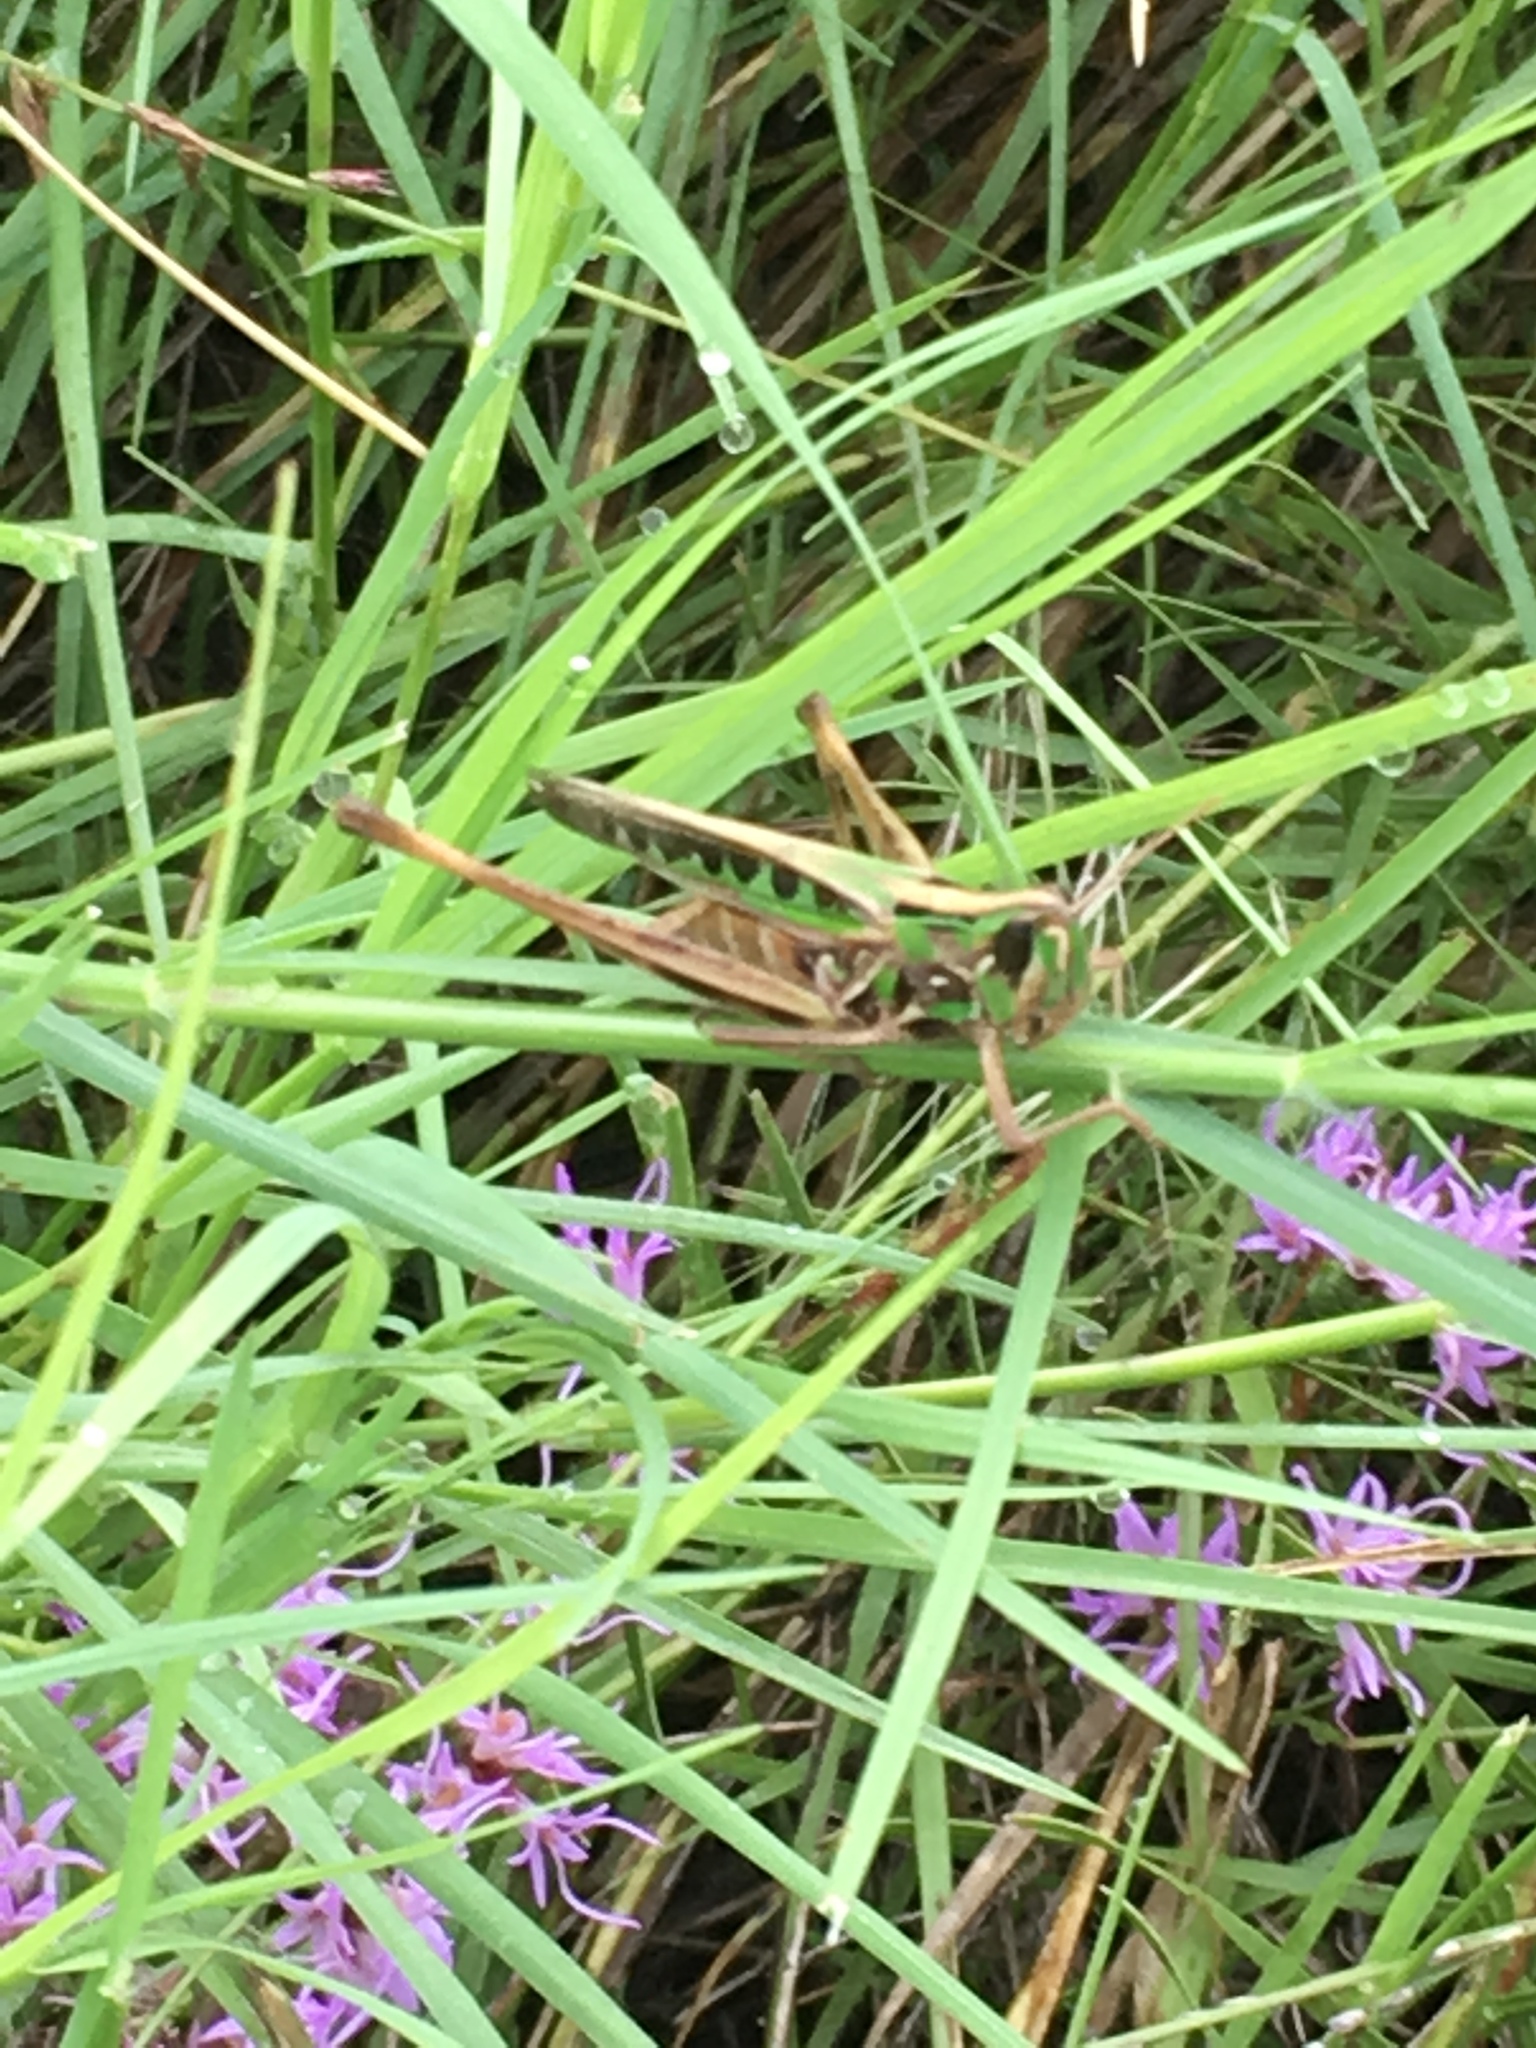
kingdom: Animalia
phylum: Arthropoda
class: Insecta
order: Orthoptera
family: Acrididae
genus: Syrbula
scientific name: Syrbula admirabilis
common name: Handsome grasshopper
